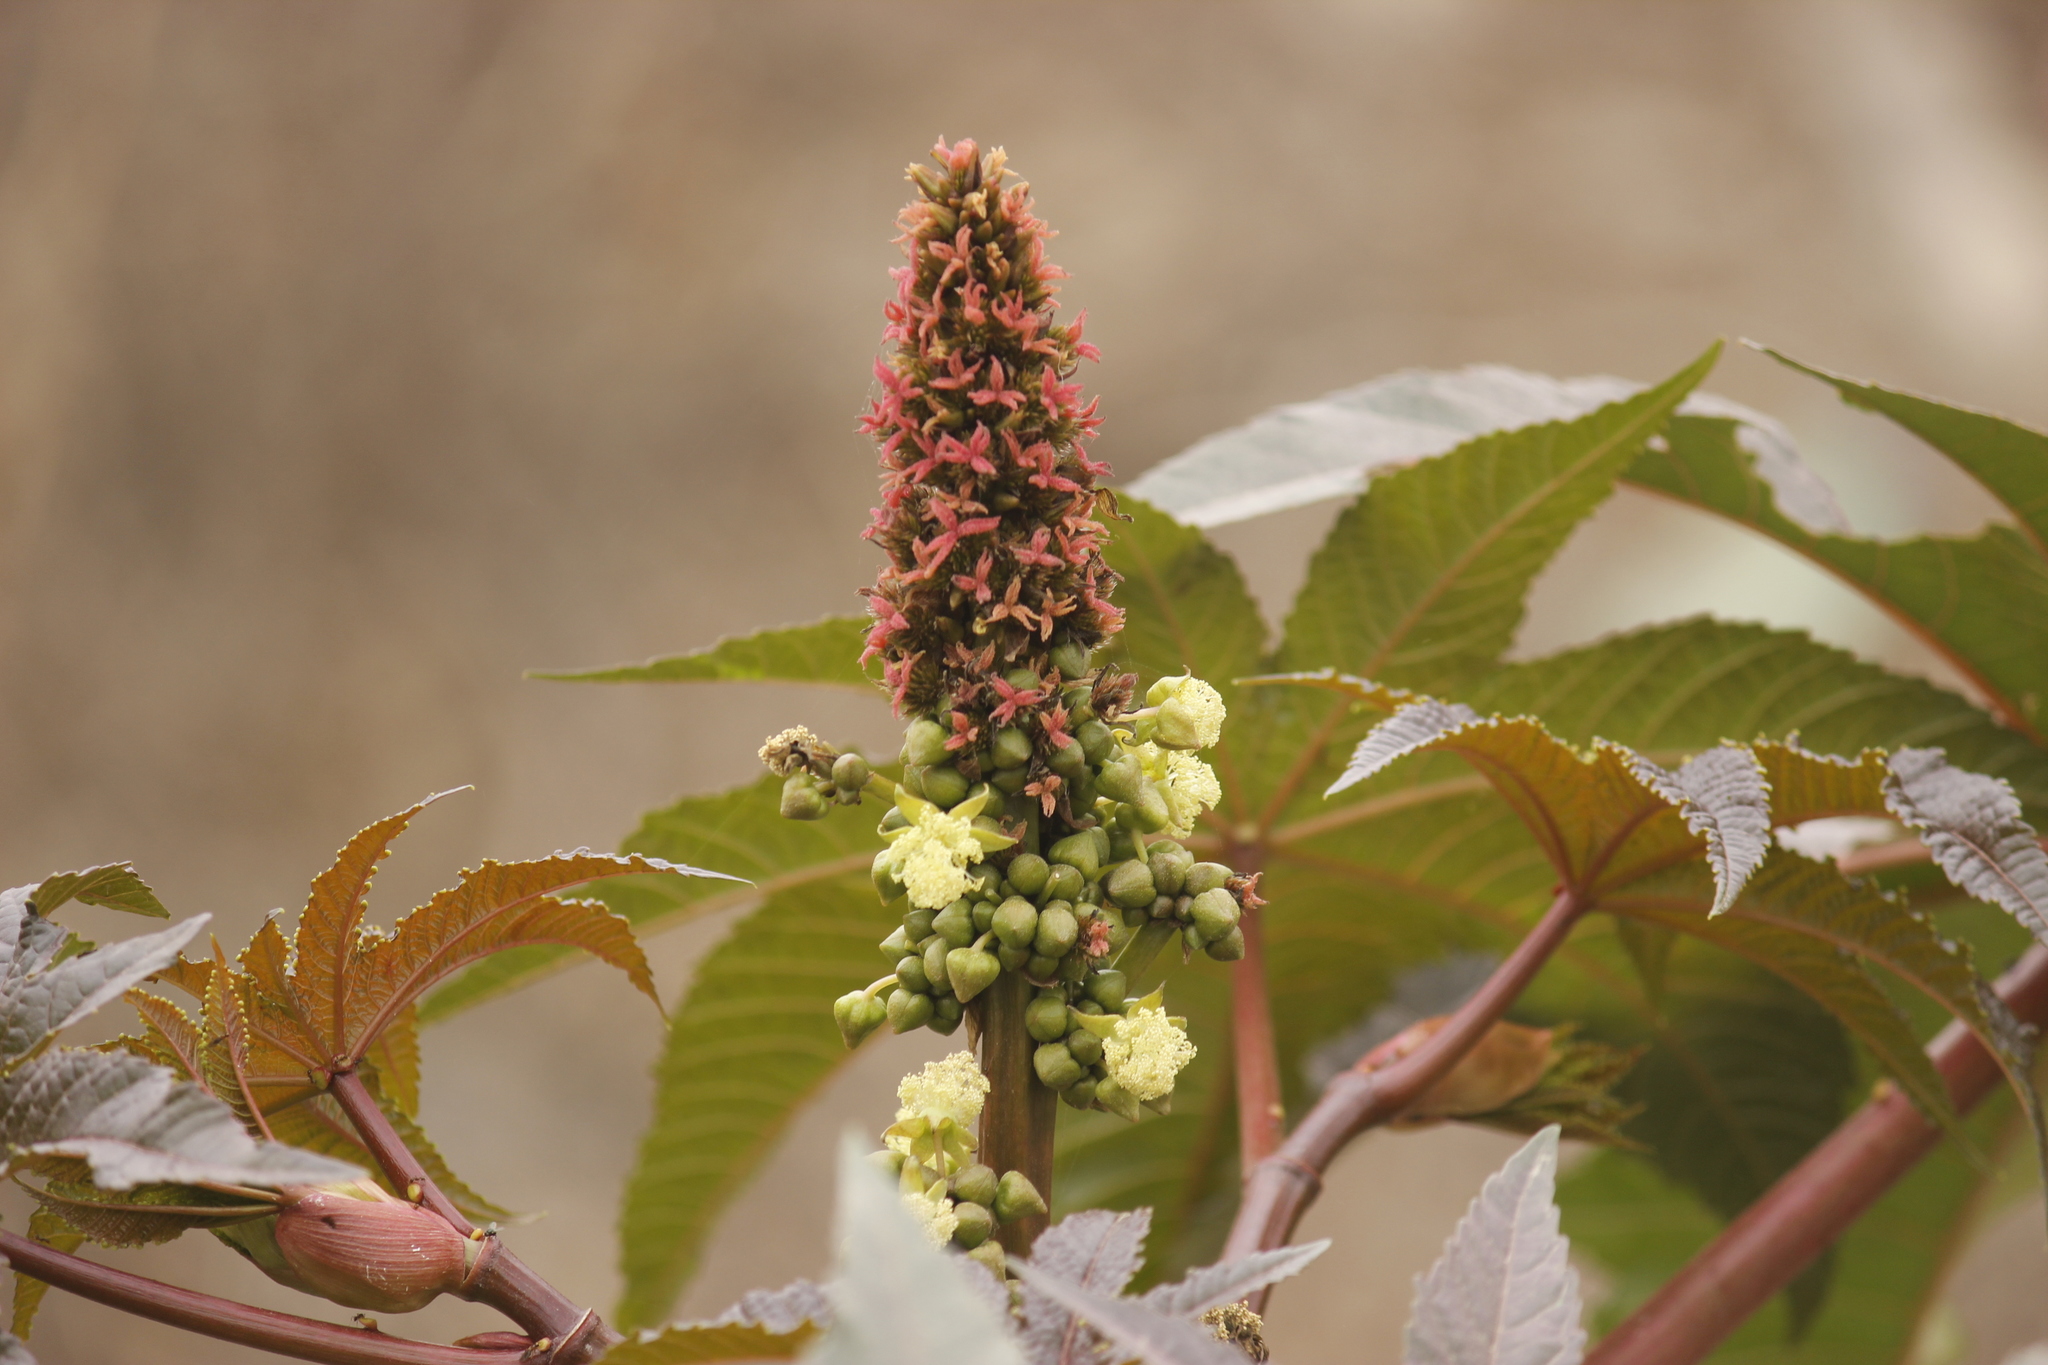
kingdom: Plantae
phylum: Tracheophyta
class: Magnoliopsida
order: Malpighiales
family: Euphorbiaceae
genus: Ricinus
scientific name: Ricinus communis
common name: Castor-oil-plant
